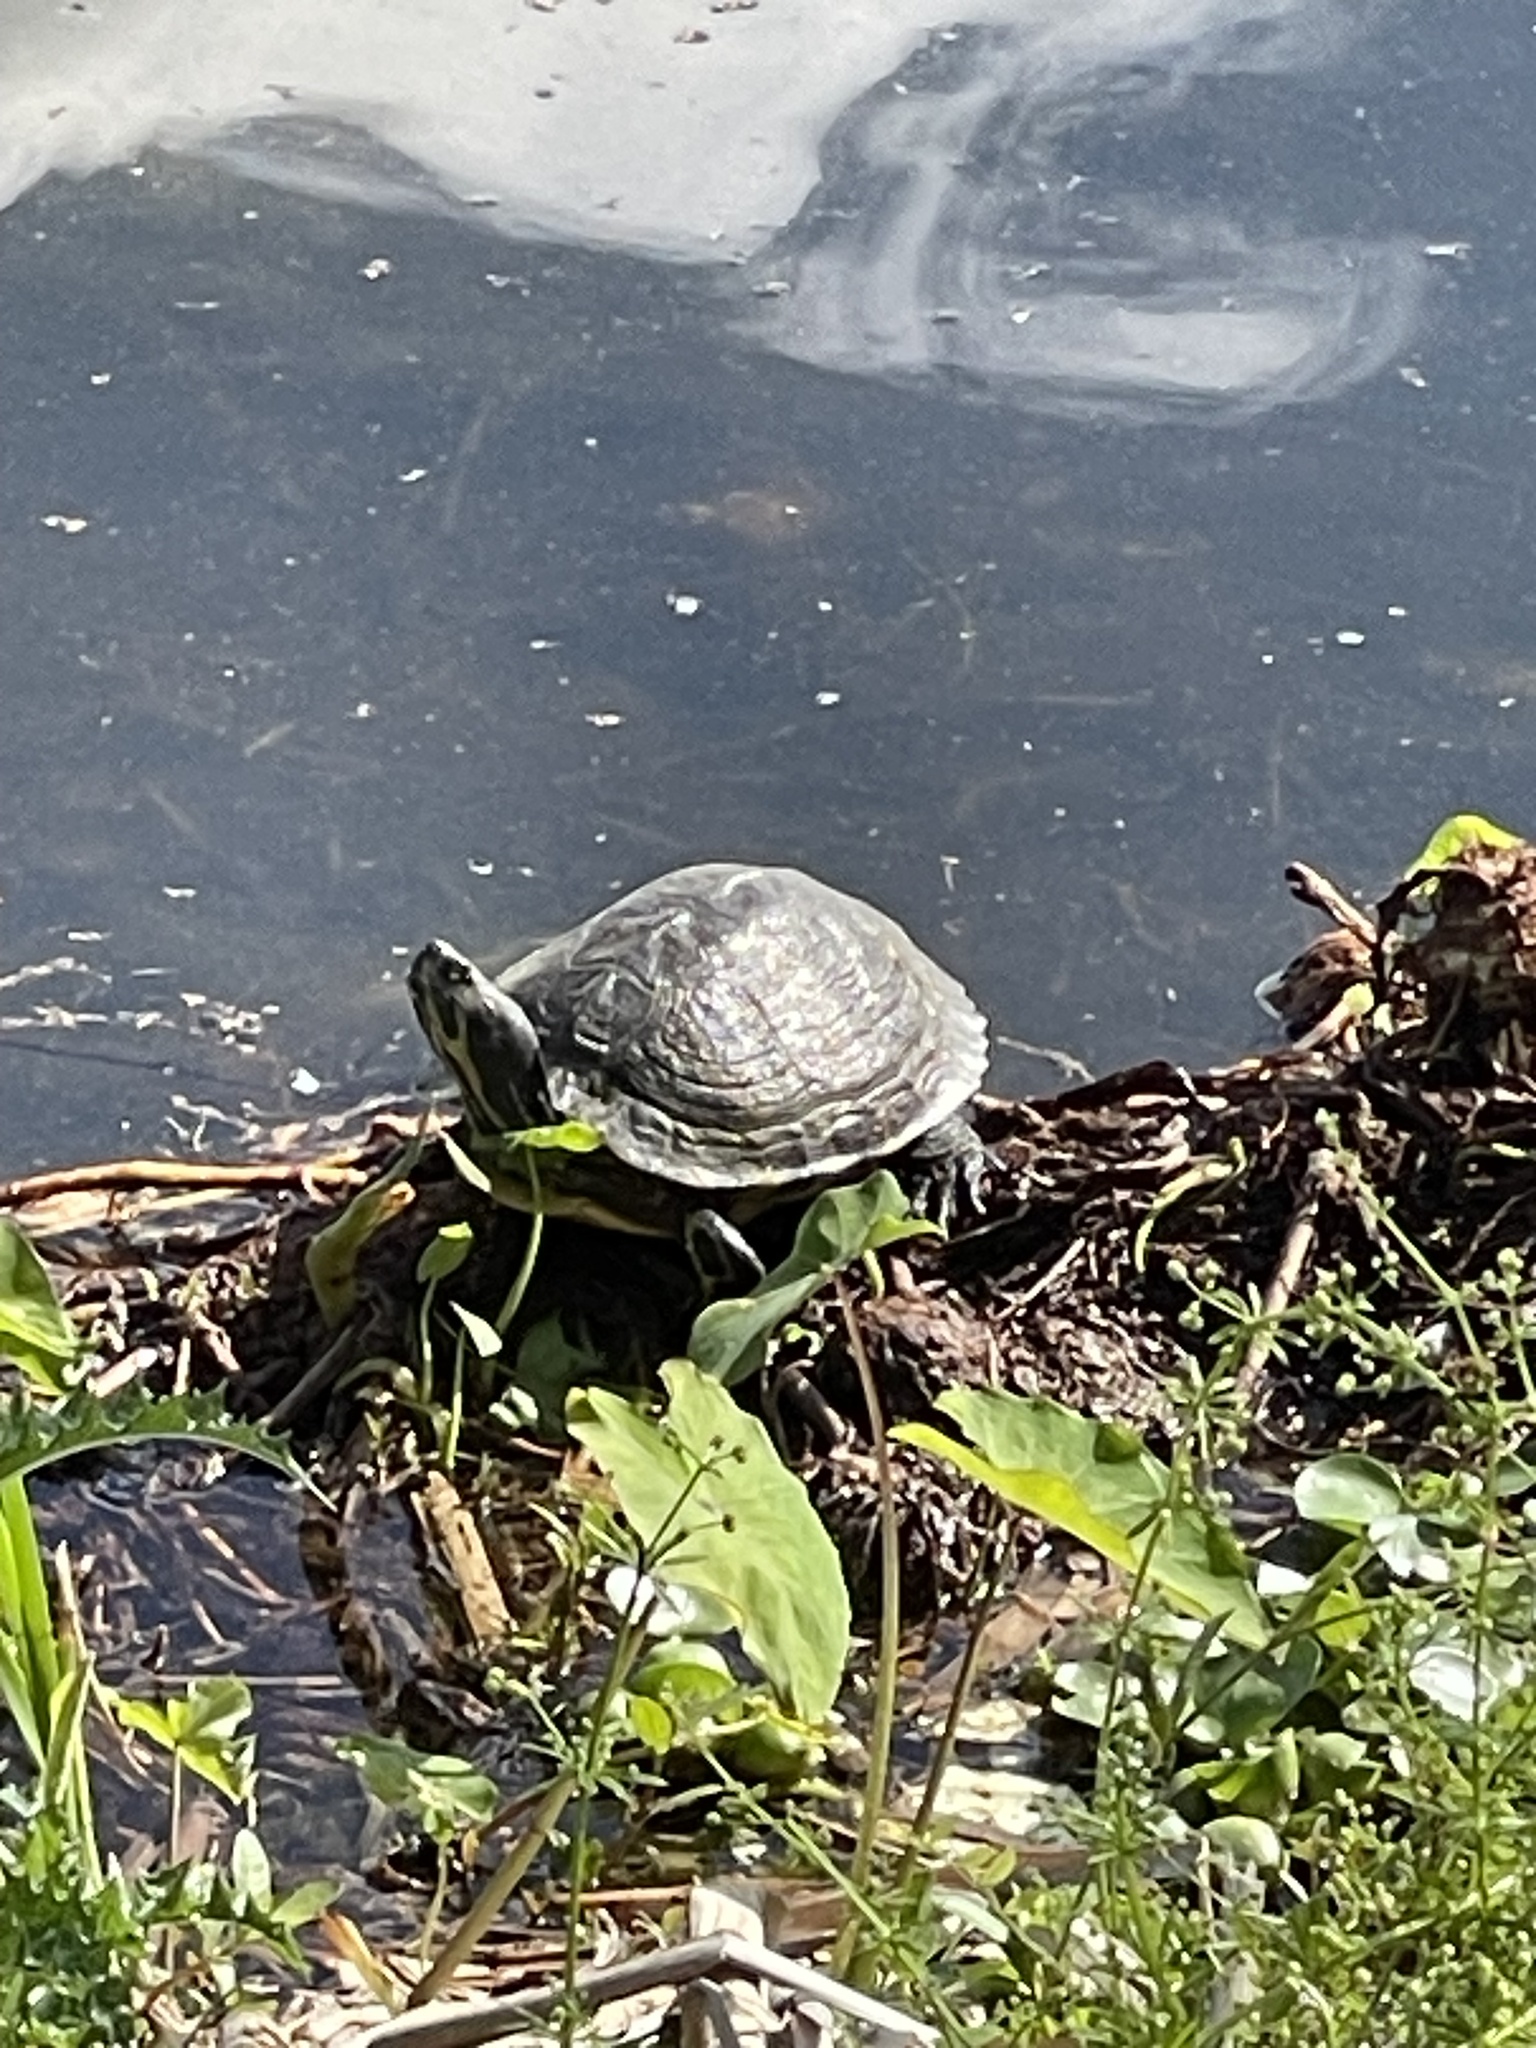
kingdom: Animalia
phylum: Chordata
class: Testudines
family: Emydidae
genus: Trachemys
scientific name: Trachemys scripta
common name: Slider
